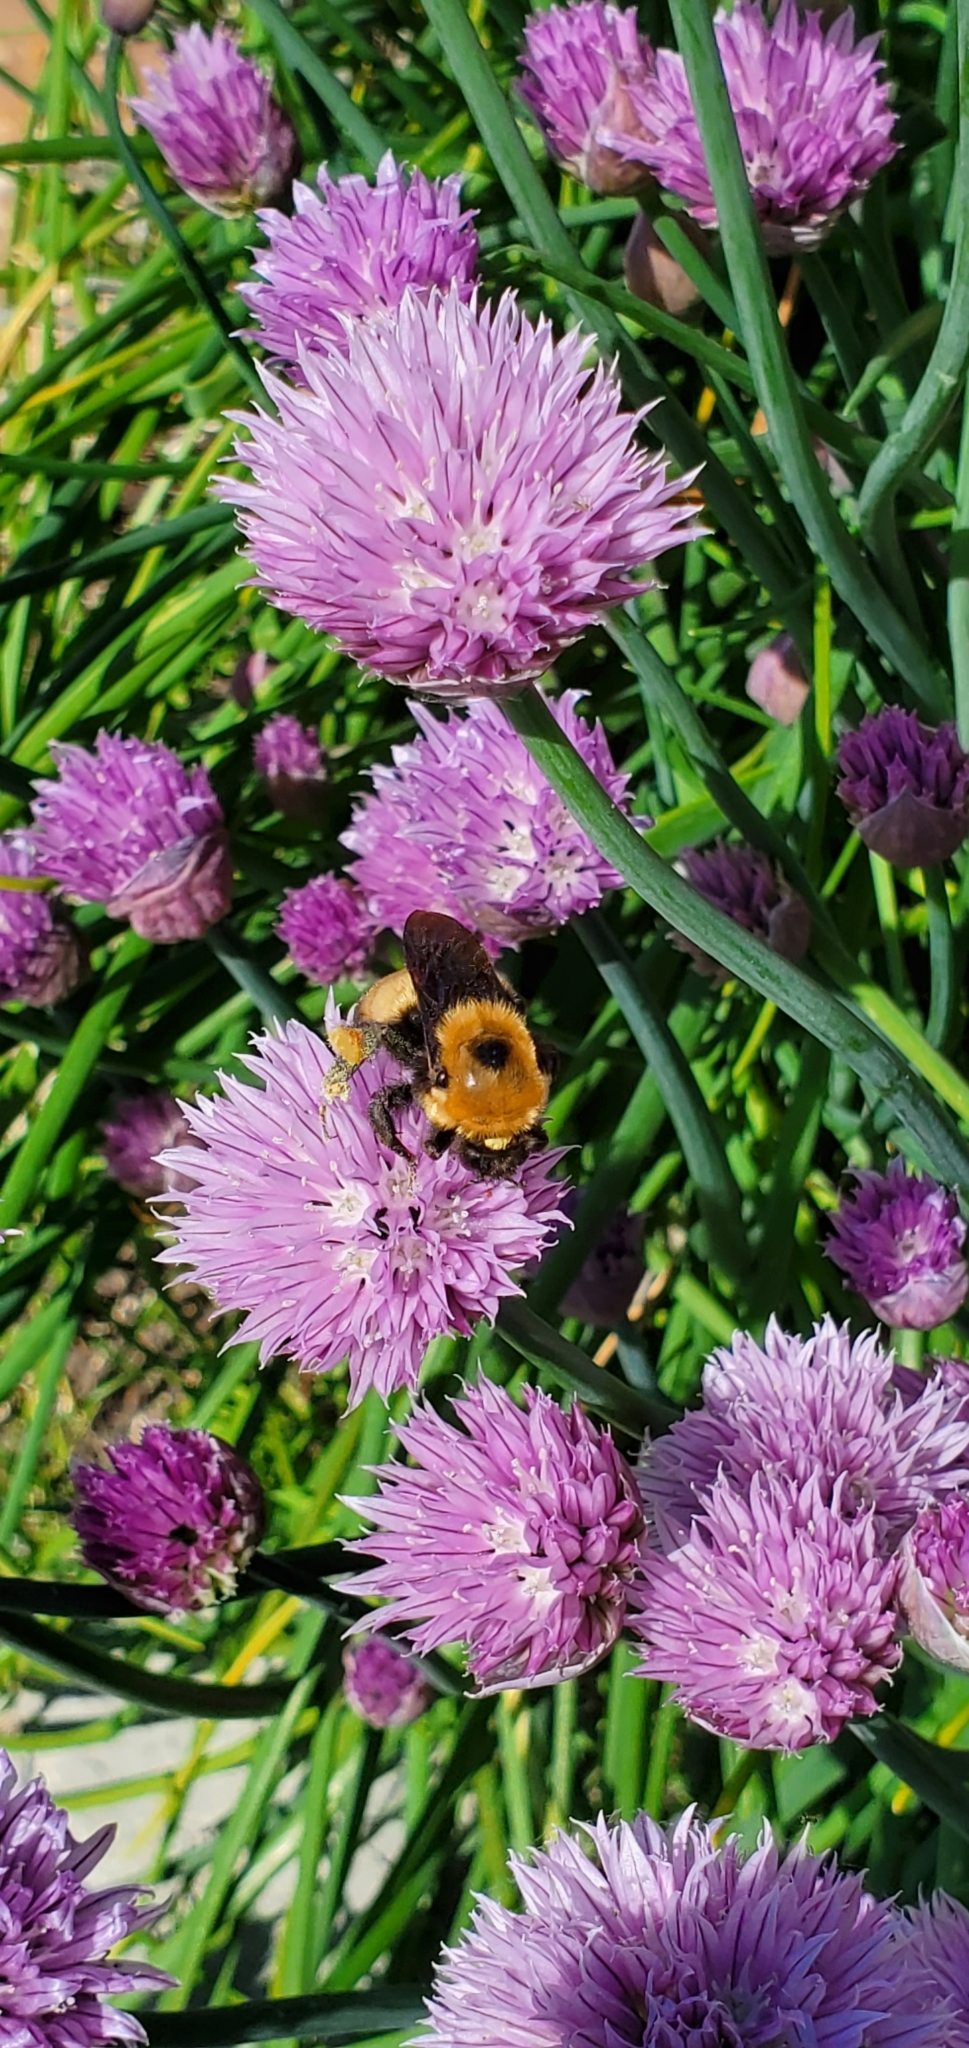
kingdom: Animalia
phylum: Arthropoda
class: Insecta
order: Hymenoptera
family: Apidae
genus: Bombus
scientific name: Bombus nevadensis
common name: Nevada bumble bee
